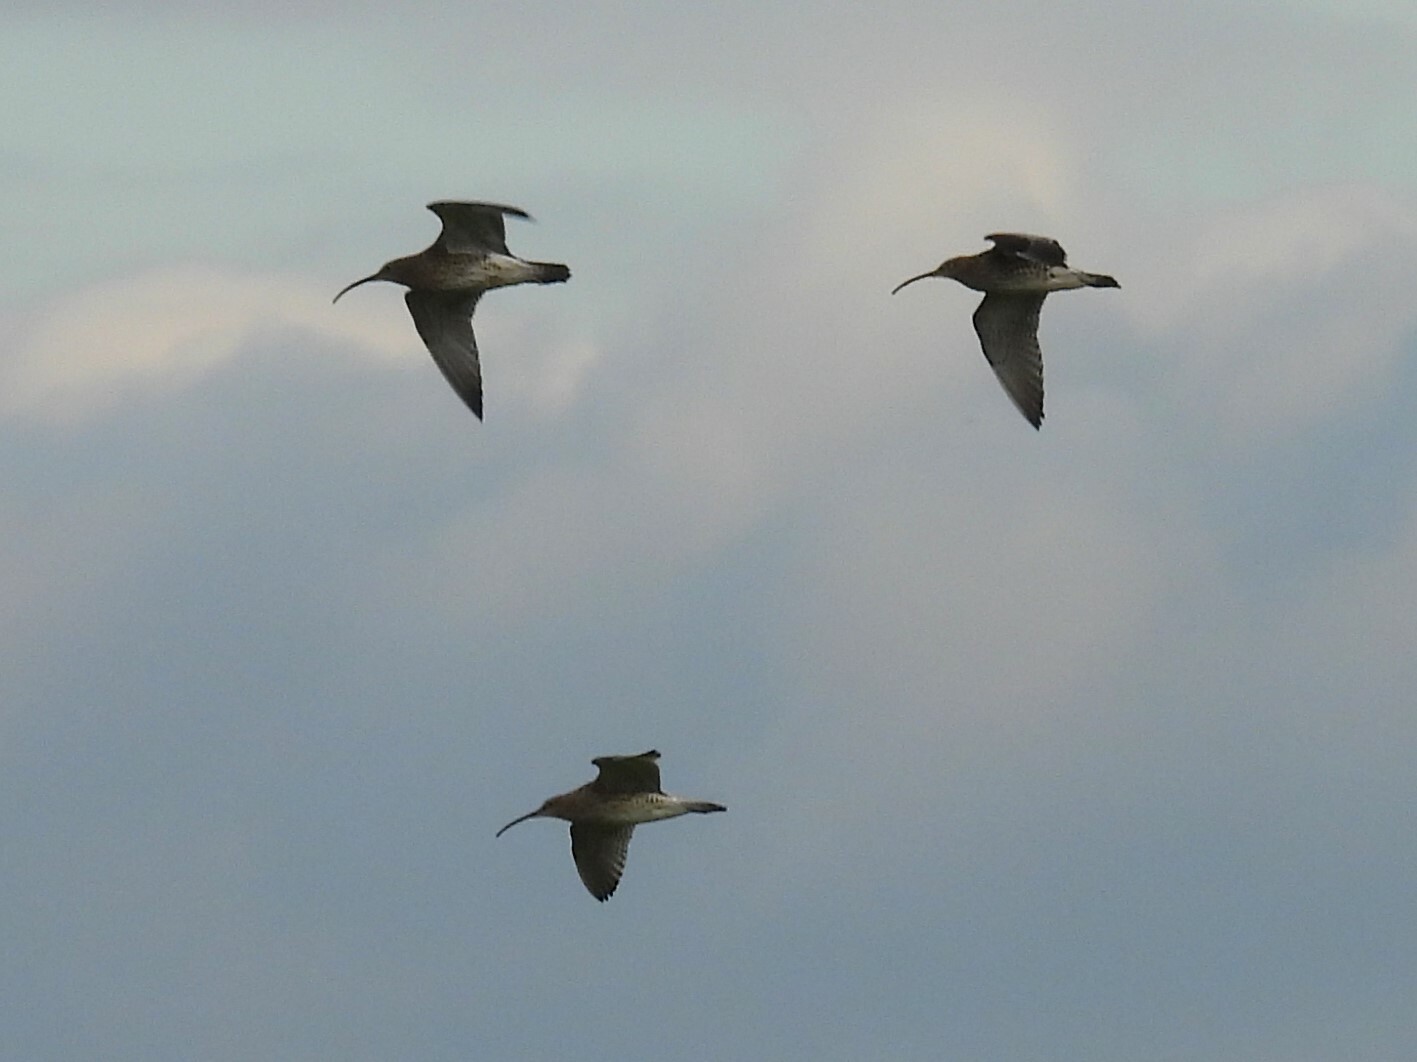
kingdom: Animalia
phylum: Chordata
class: Aves
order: Charadriiformes
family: Scolopacidae
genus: Numenius
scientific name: Numenius arquata
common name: Eurasian curlew
